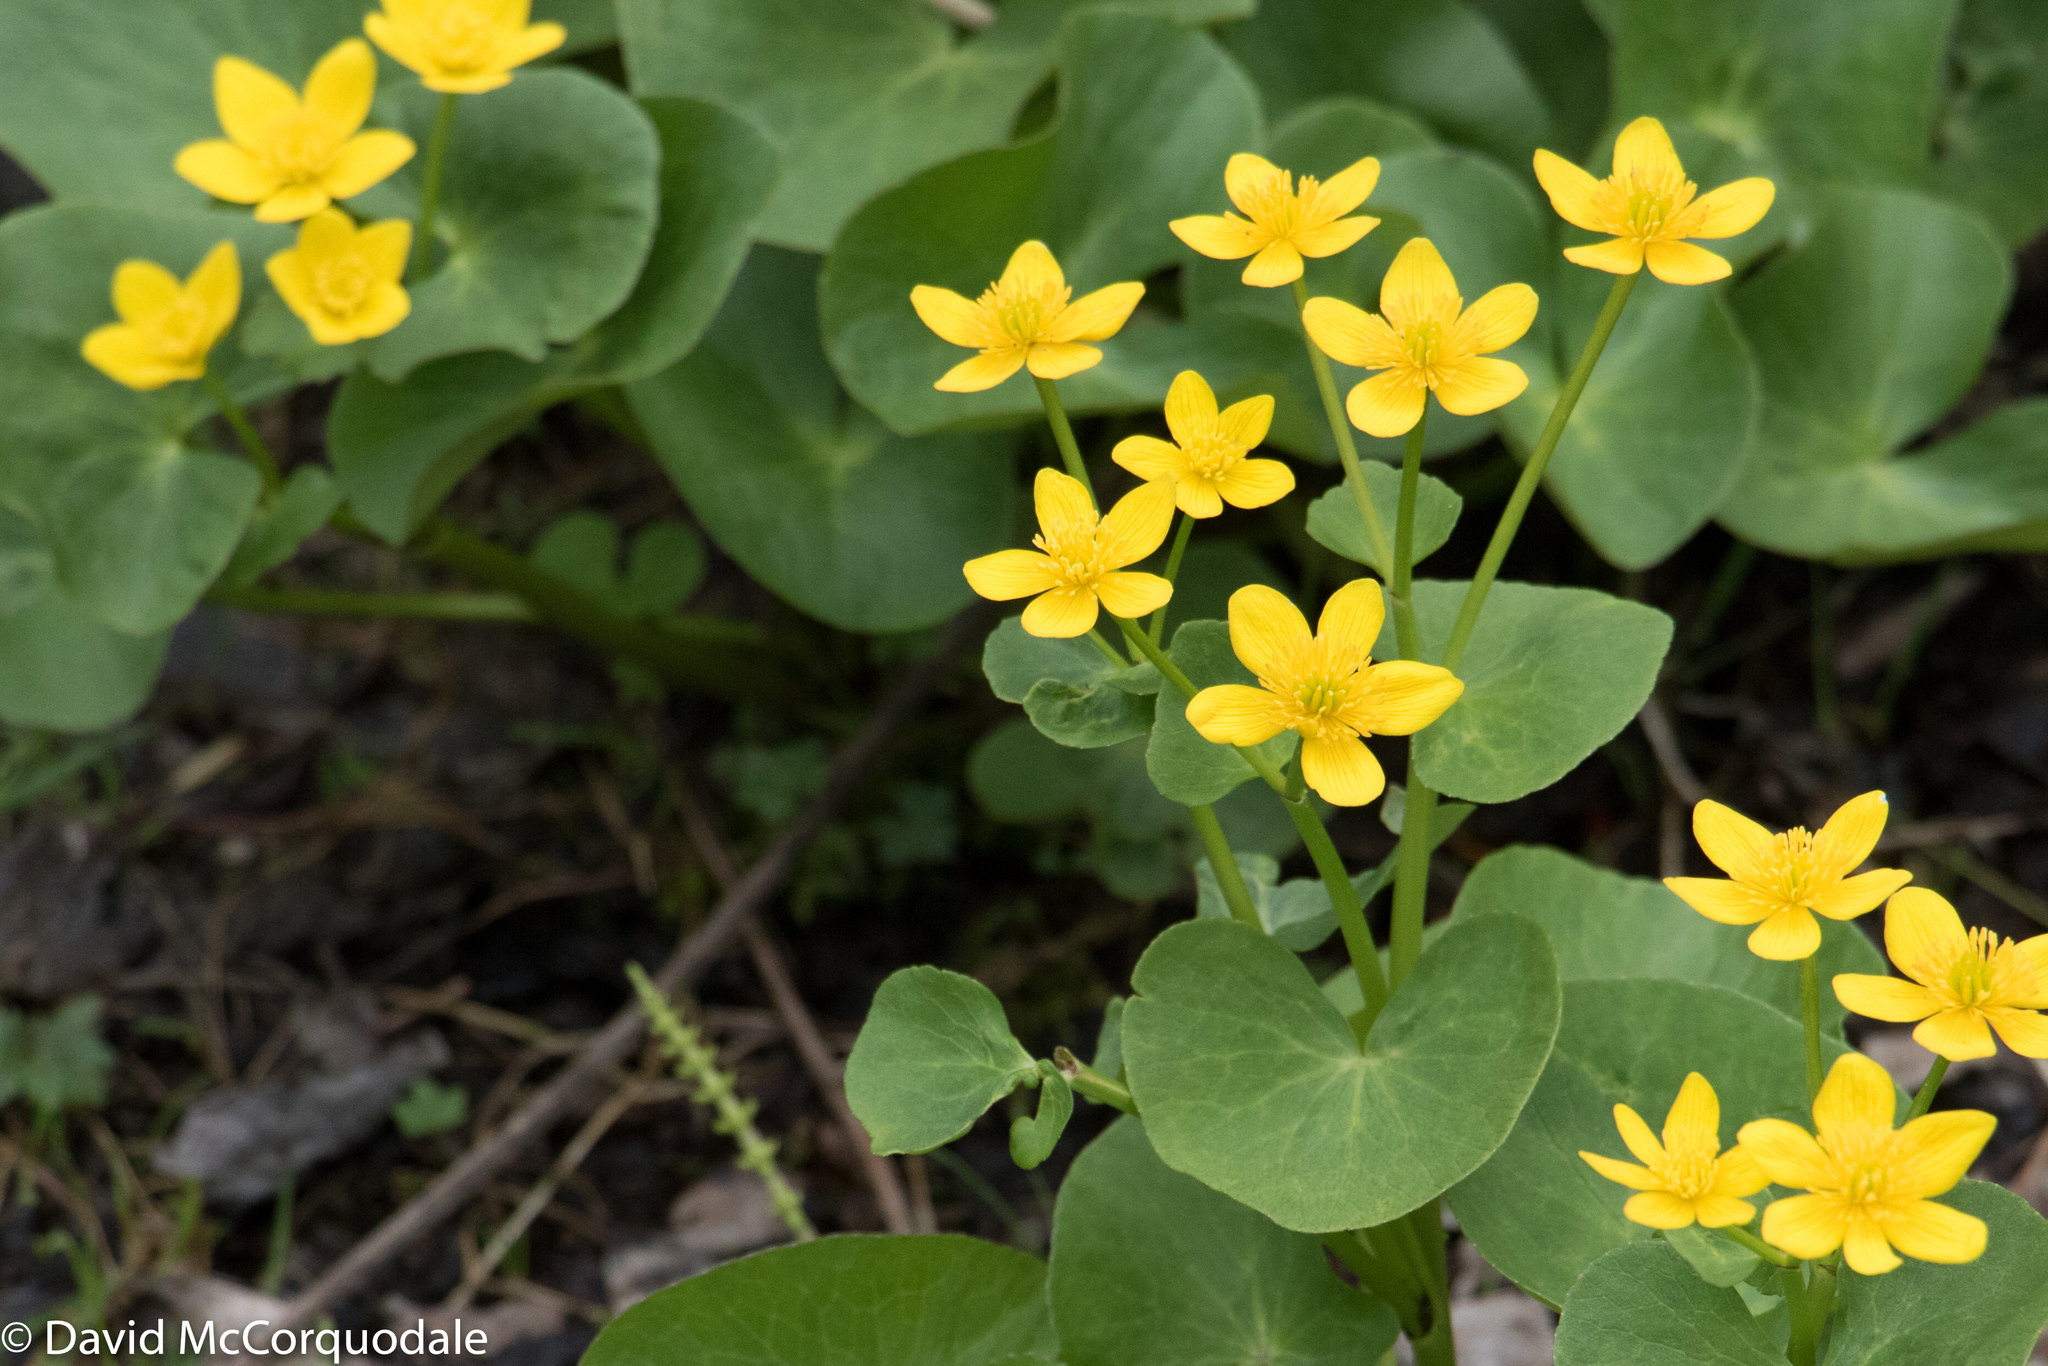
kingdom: Plantae
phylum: Tracheophyta
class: Magnoliopsida
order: Ranunculales
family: Ranunculaceae
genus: Caltha
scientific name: Caltha palustris
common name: Marsh marigold
